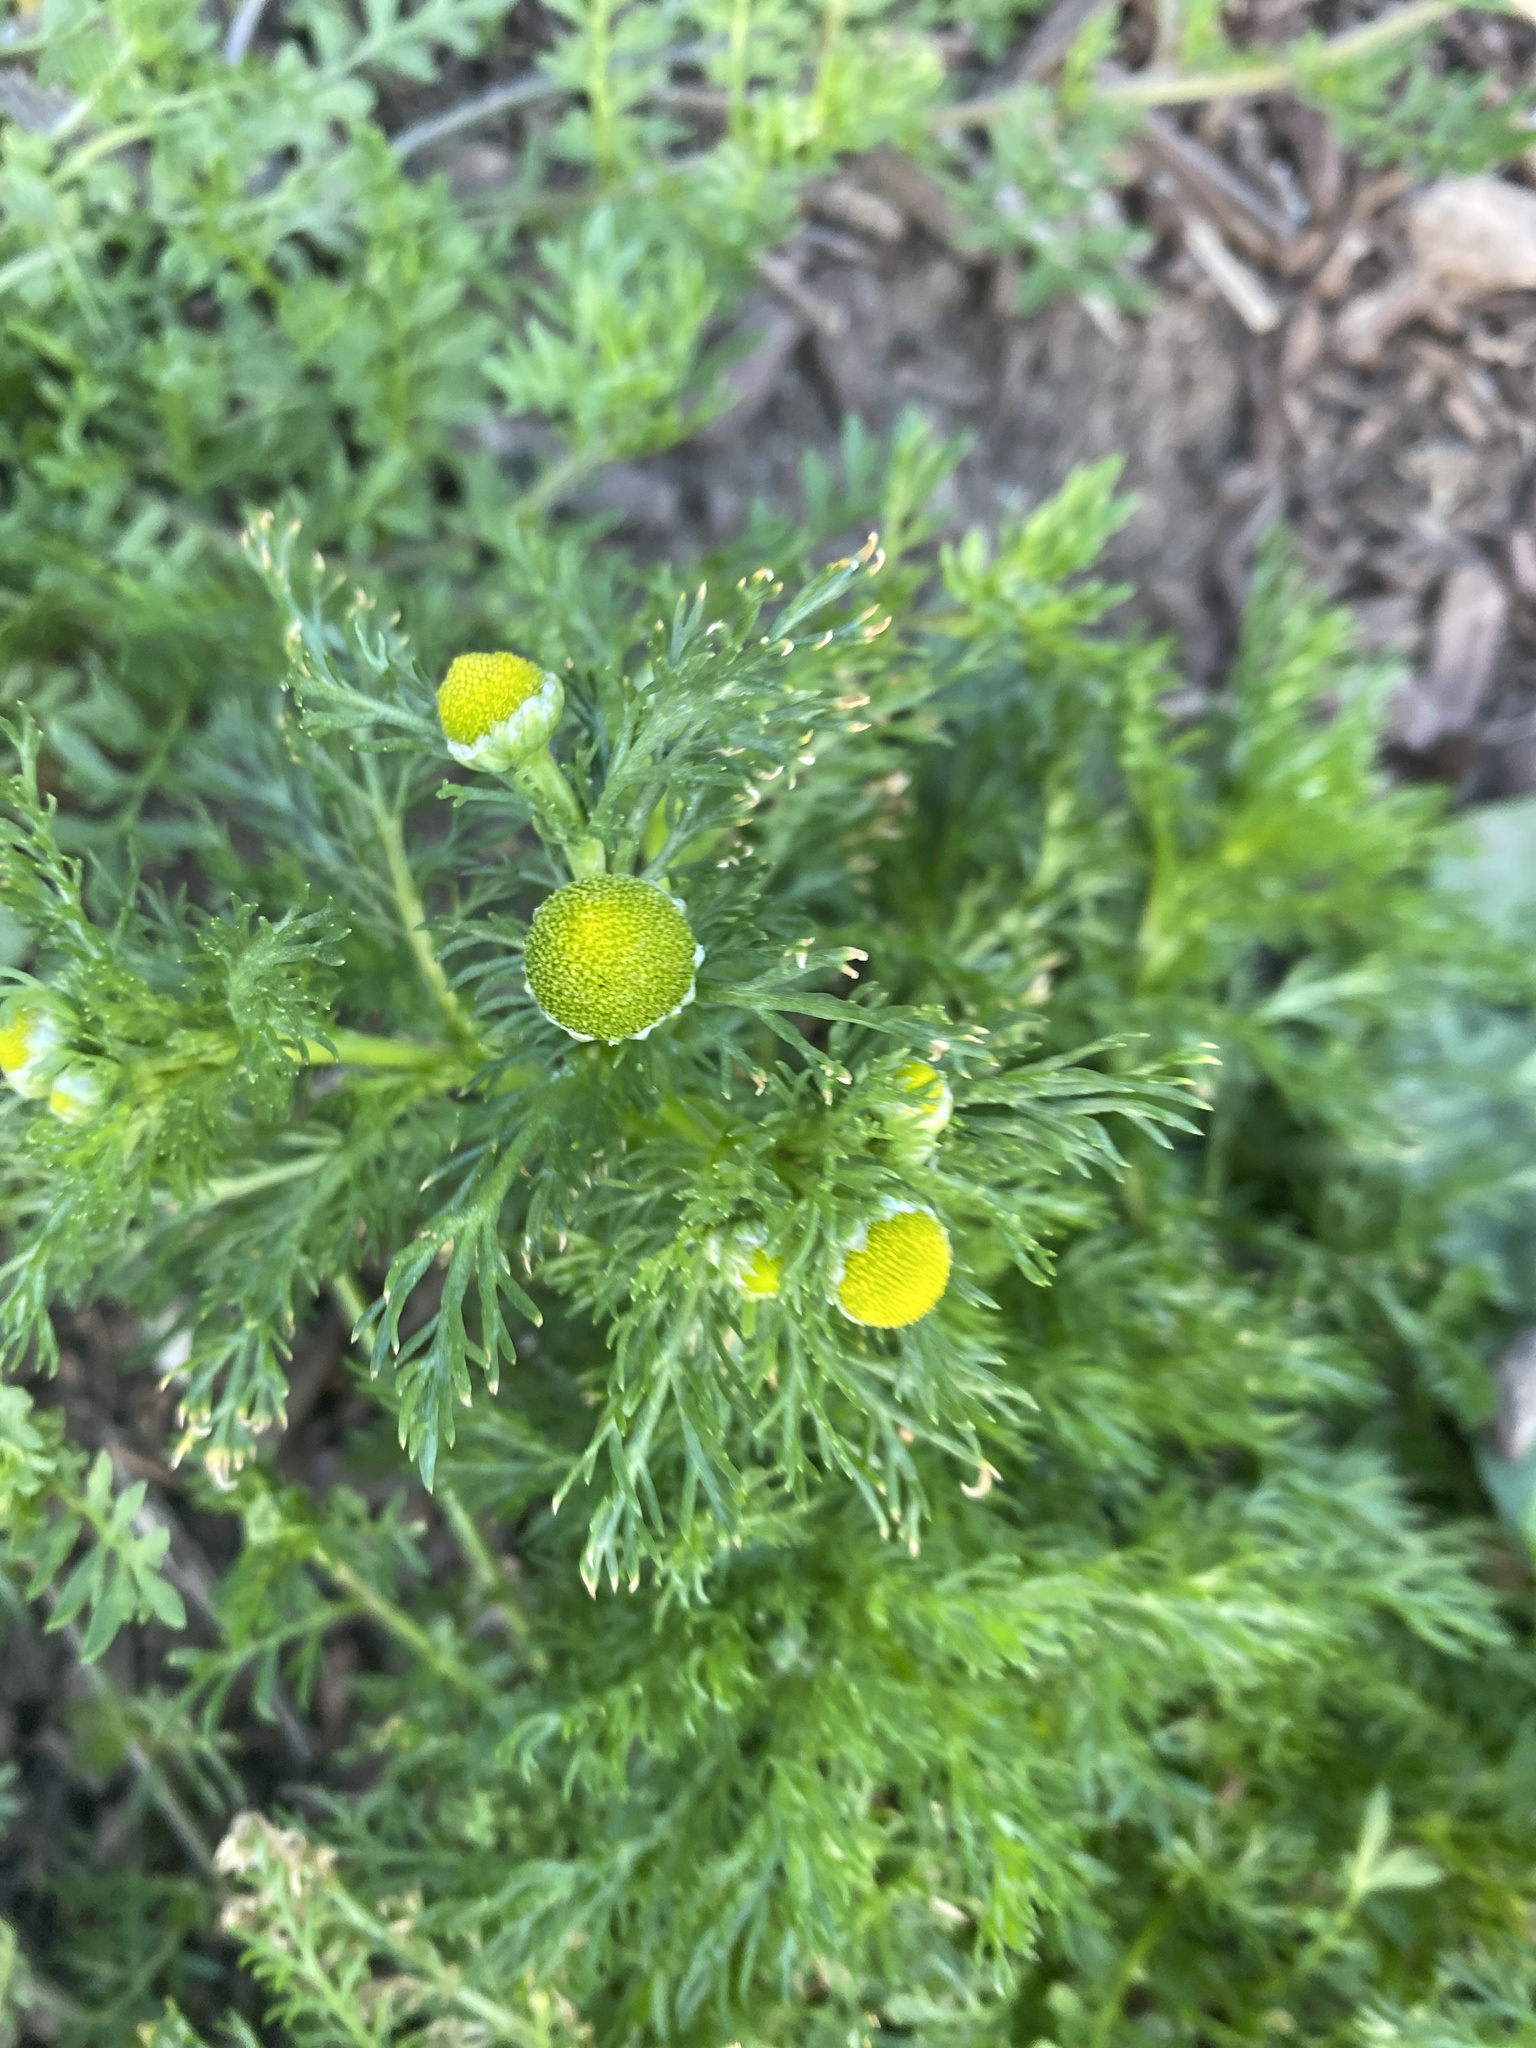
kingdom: Plantae
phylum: Tracheophyta
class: Magnoliopsida
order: Asterales
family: Asteraceae
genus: Matricaria
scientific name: Matricaria discoidea
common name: Disc mayweed
